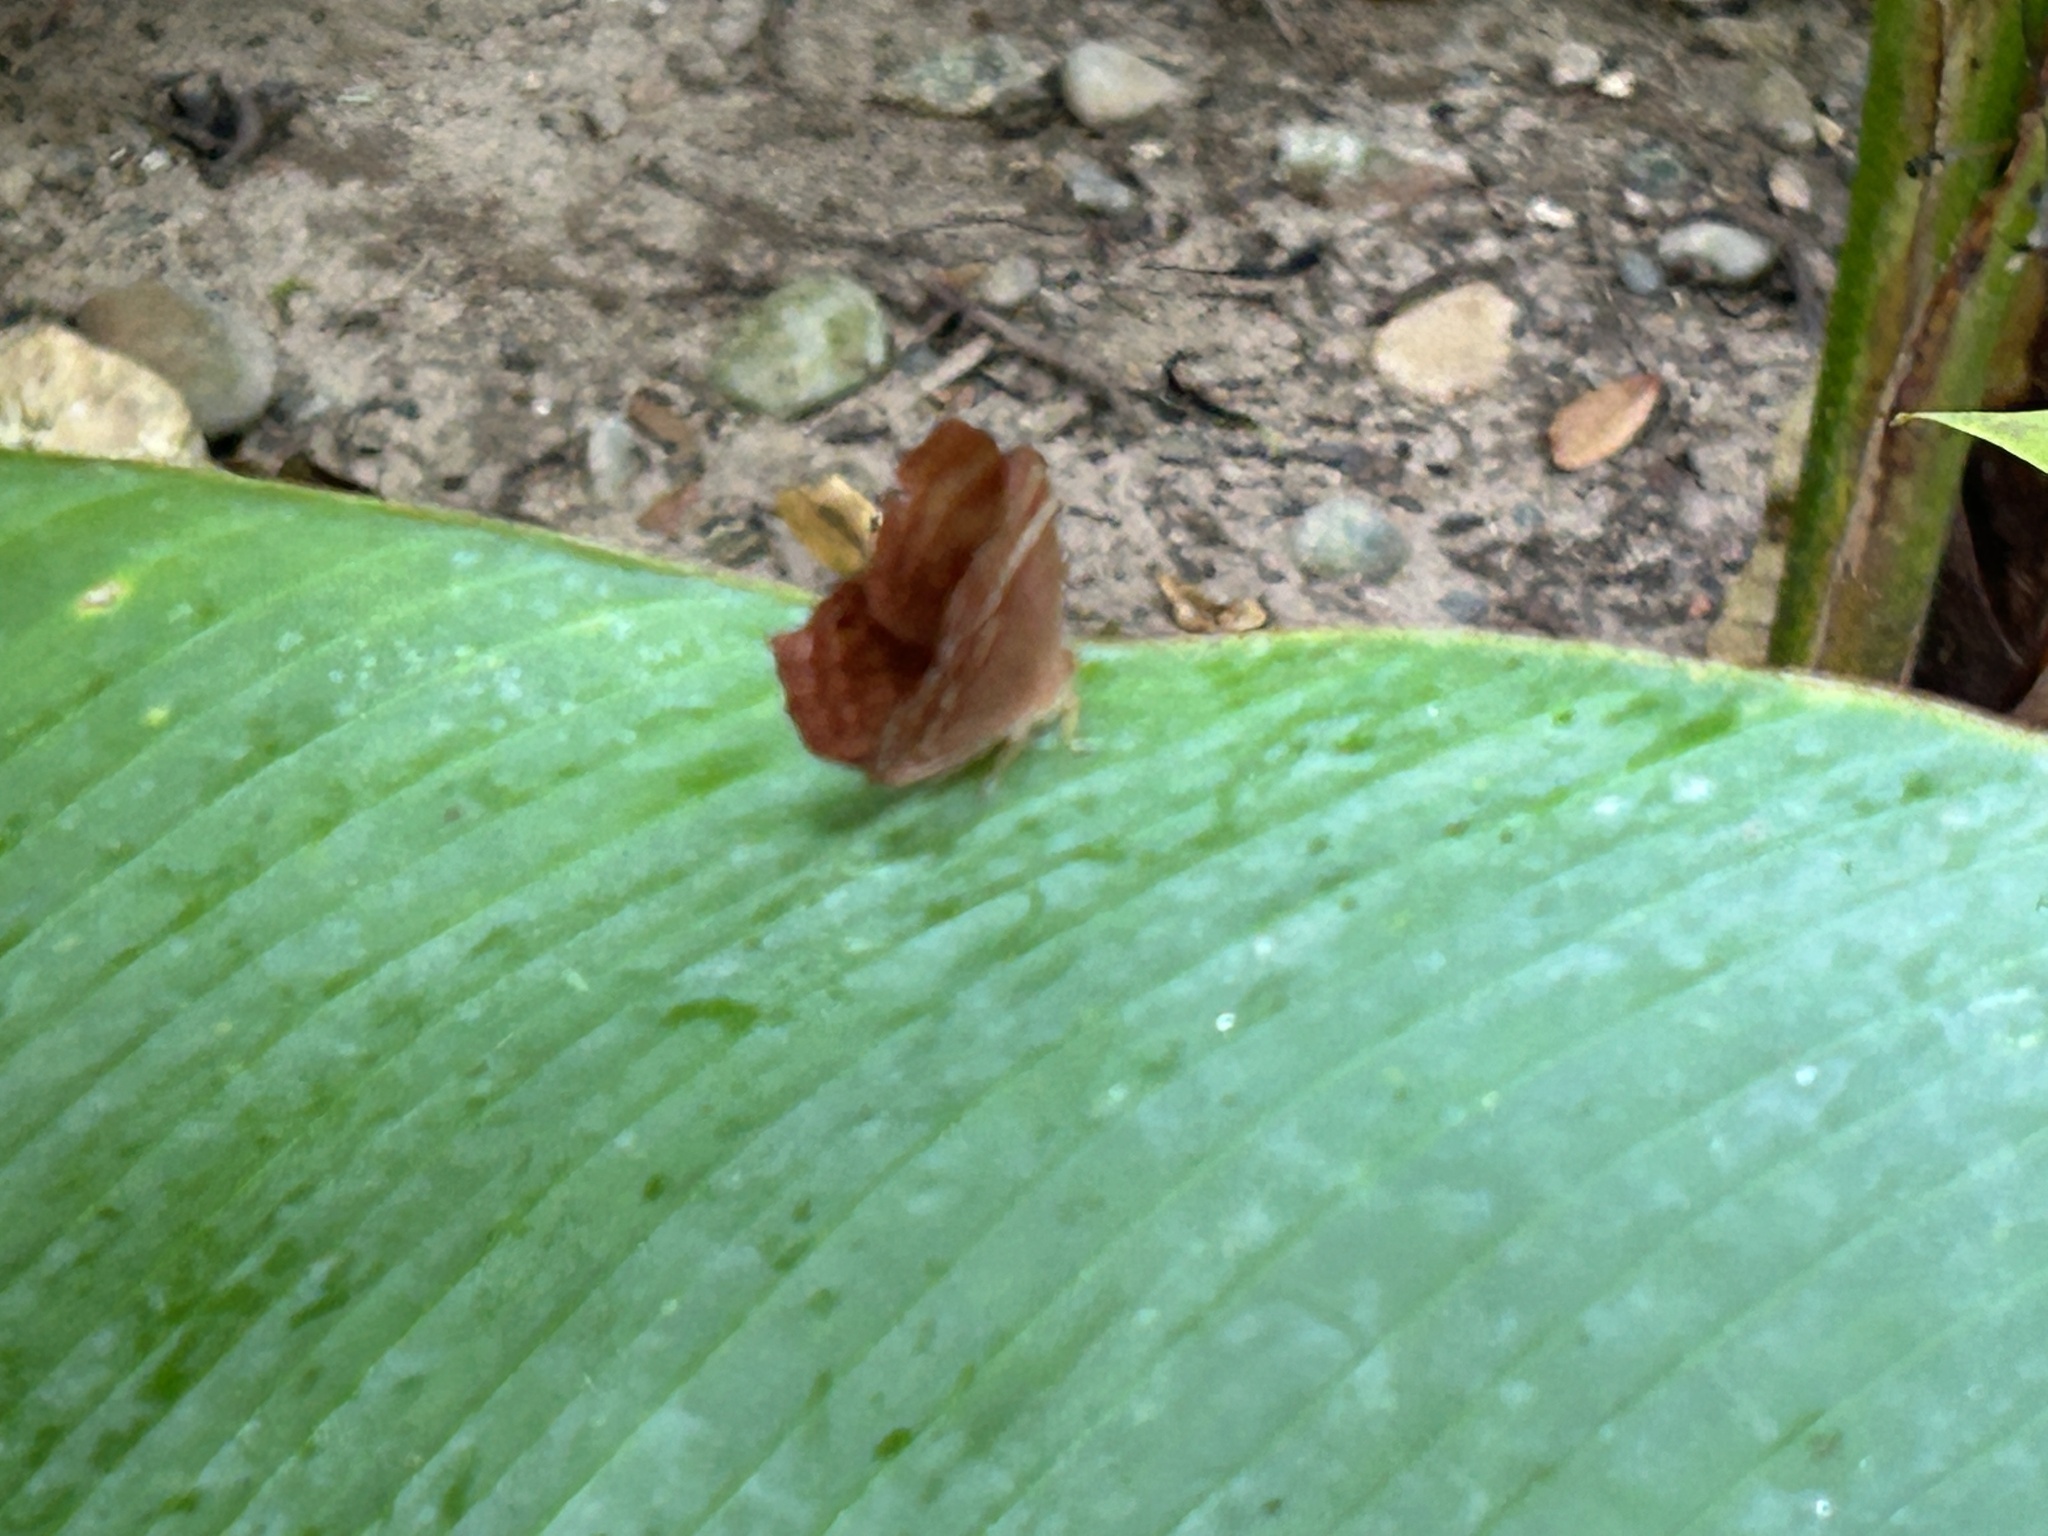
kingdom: Animalia
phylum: Arthropoda
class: Insecta
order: Lepidoptera
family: Lycaenidae
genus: Abisara
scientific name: Abisara echeria
